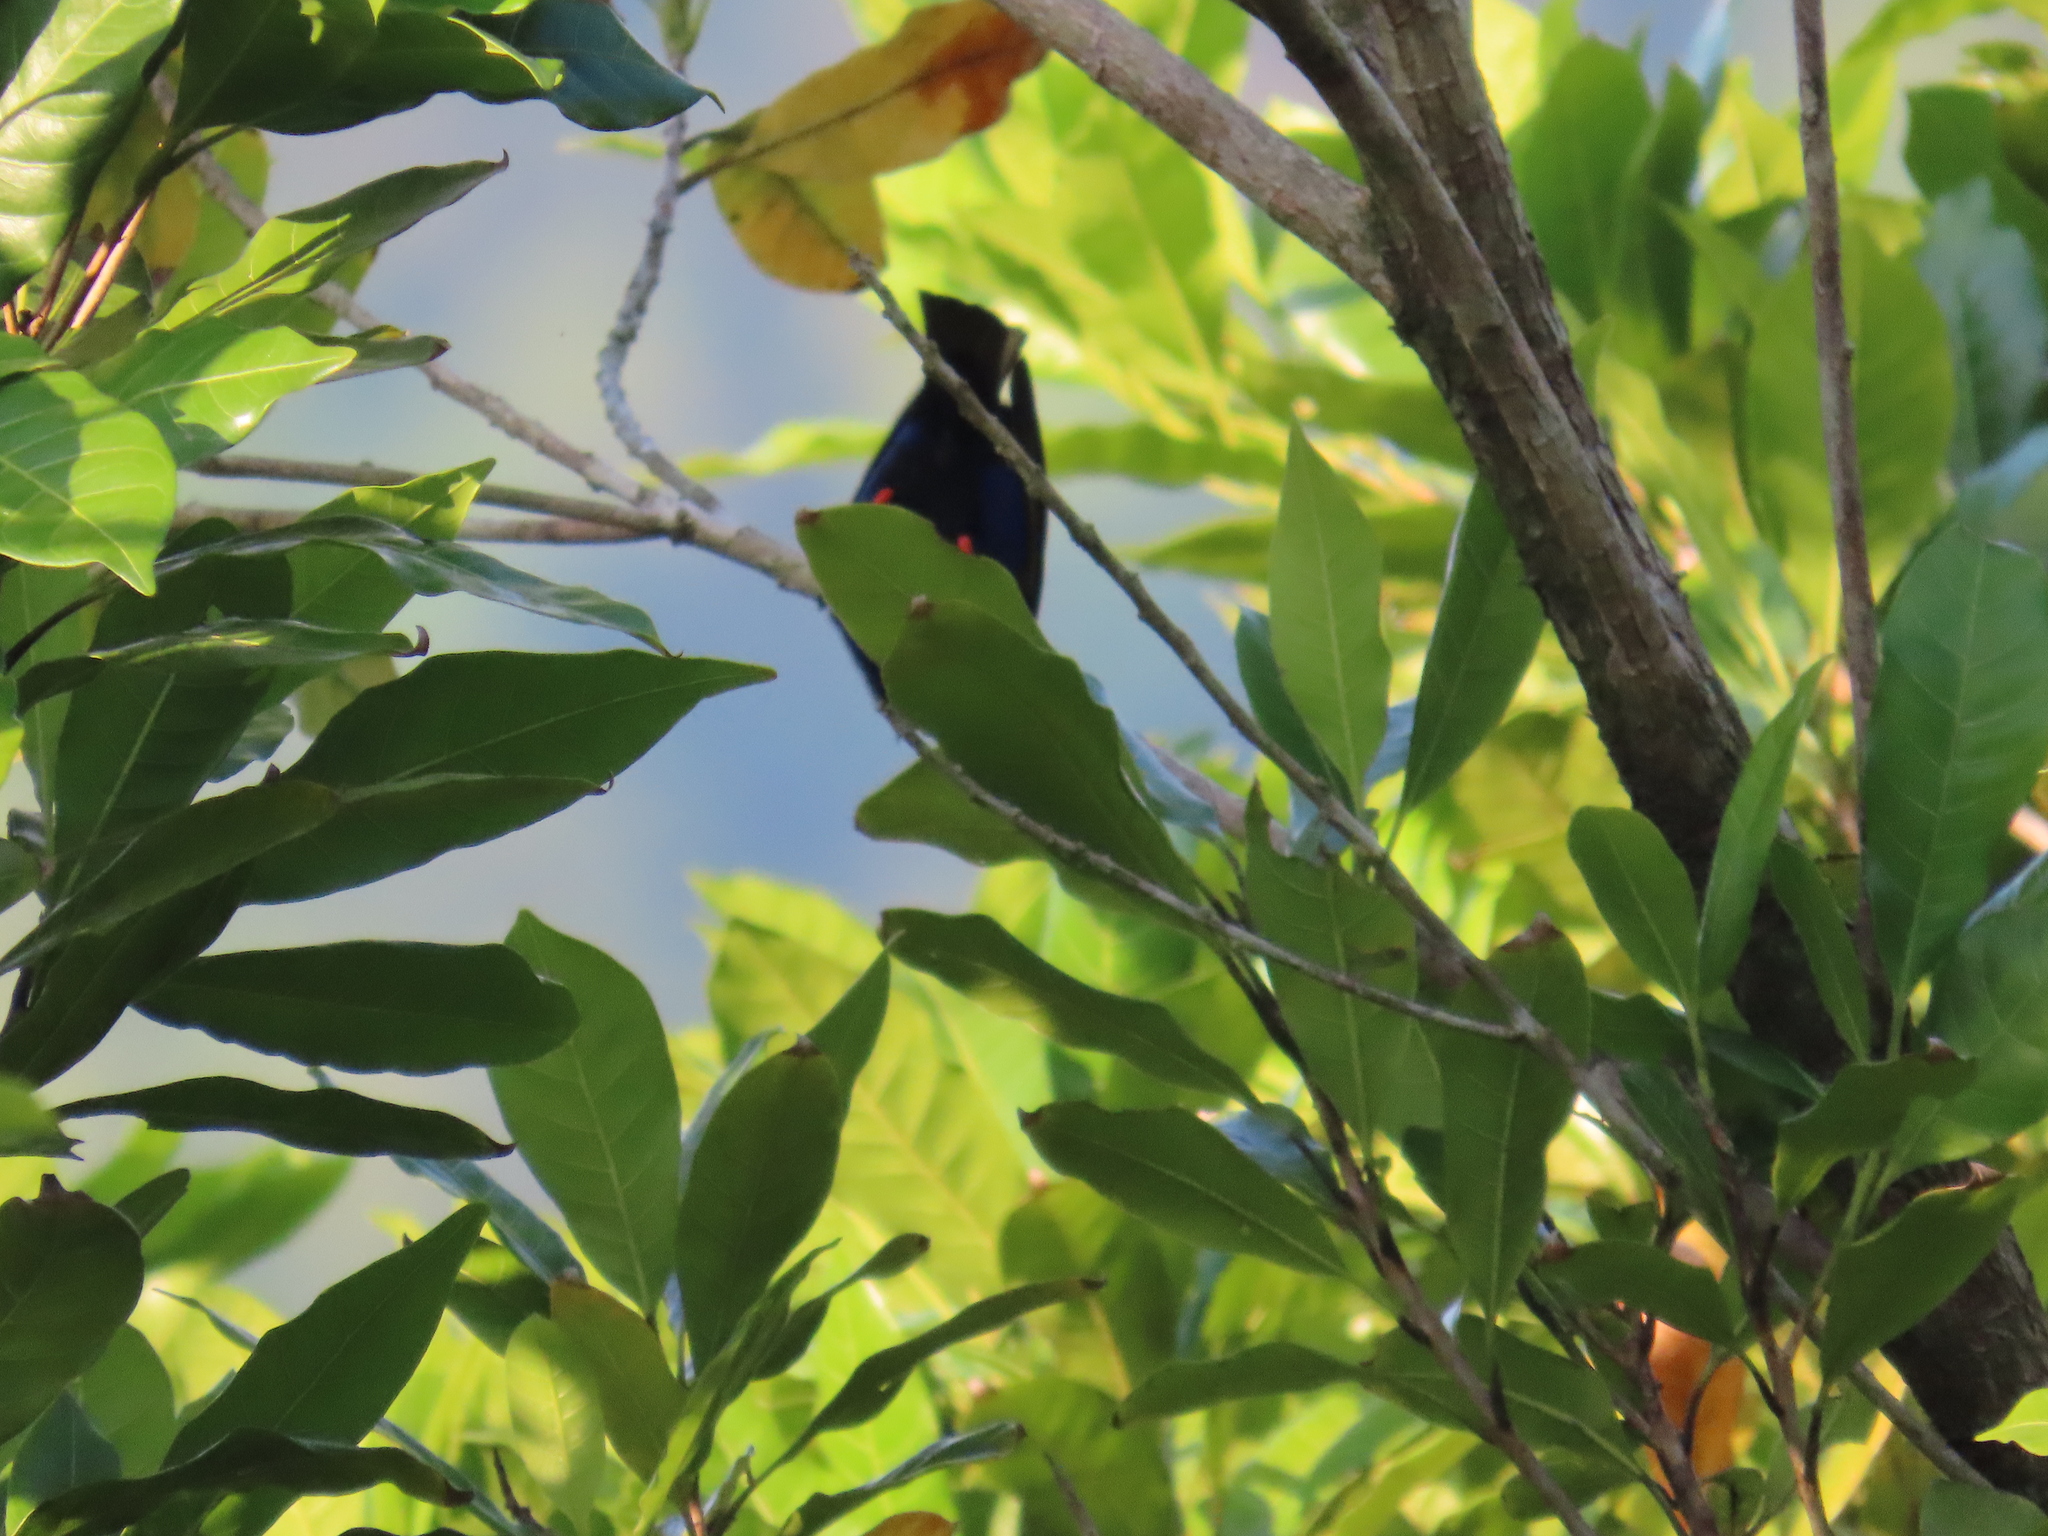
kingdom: Animalia
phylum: Chordata
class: Aves
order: Passeriformes
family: Thraupidae
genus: Cyanerpes
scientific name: Cyanerpes cyaneus
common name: Red-legged honeycreeper
